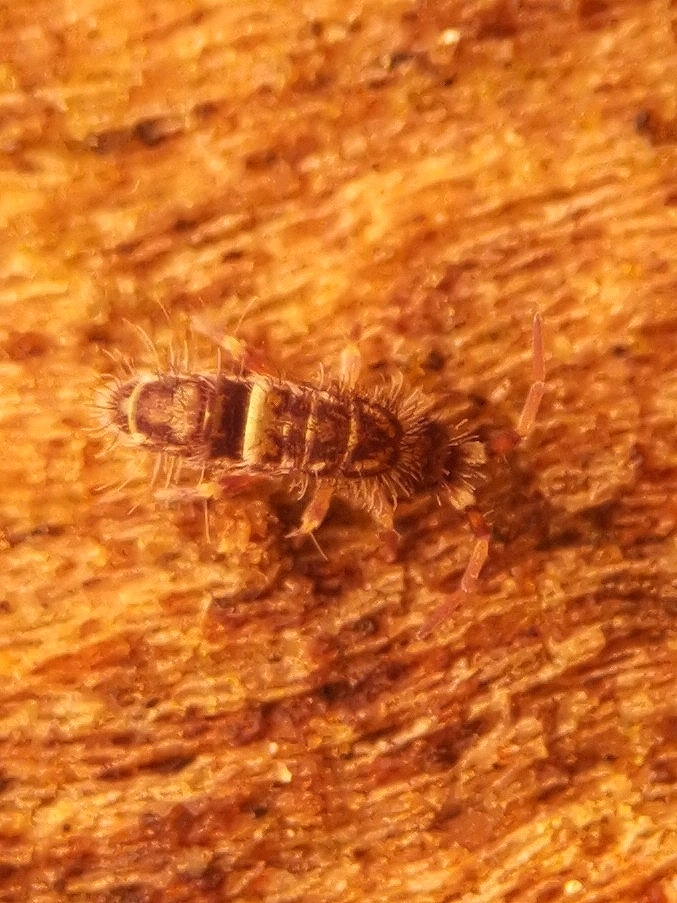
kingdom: Animalia
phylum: Arthropoda
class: Collembola
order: Entomobryomorpha
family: Orchesellidae
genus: Orchesella
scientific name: Orchesella cincta
